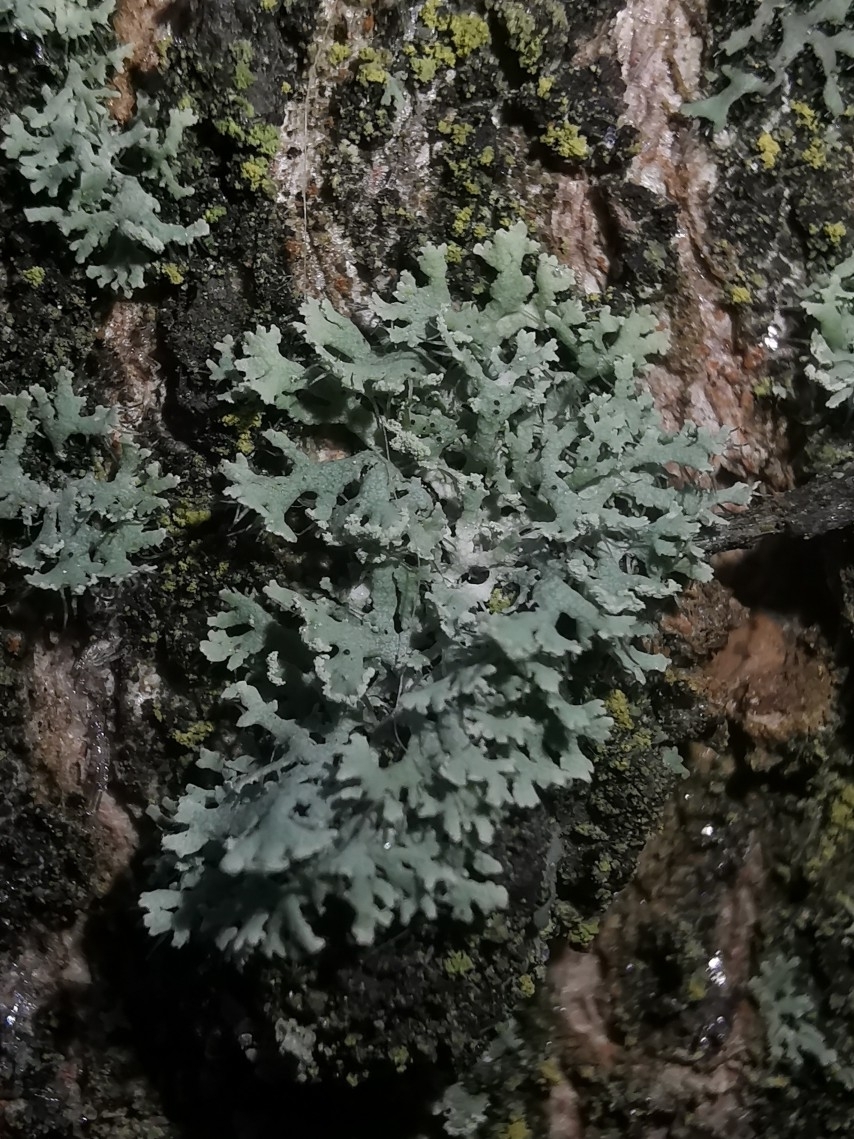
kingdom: Fungi
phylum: Ascomycota
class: Lecanoromycetes
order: Caliciales
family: Physciaceae
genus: Physcia
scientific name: Physcia tenella
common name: Fringed rosette lichen
